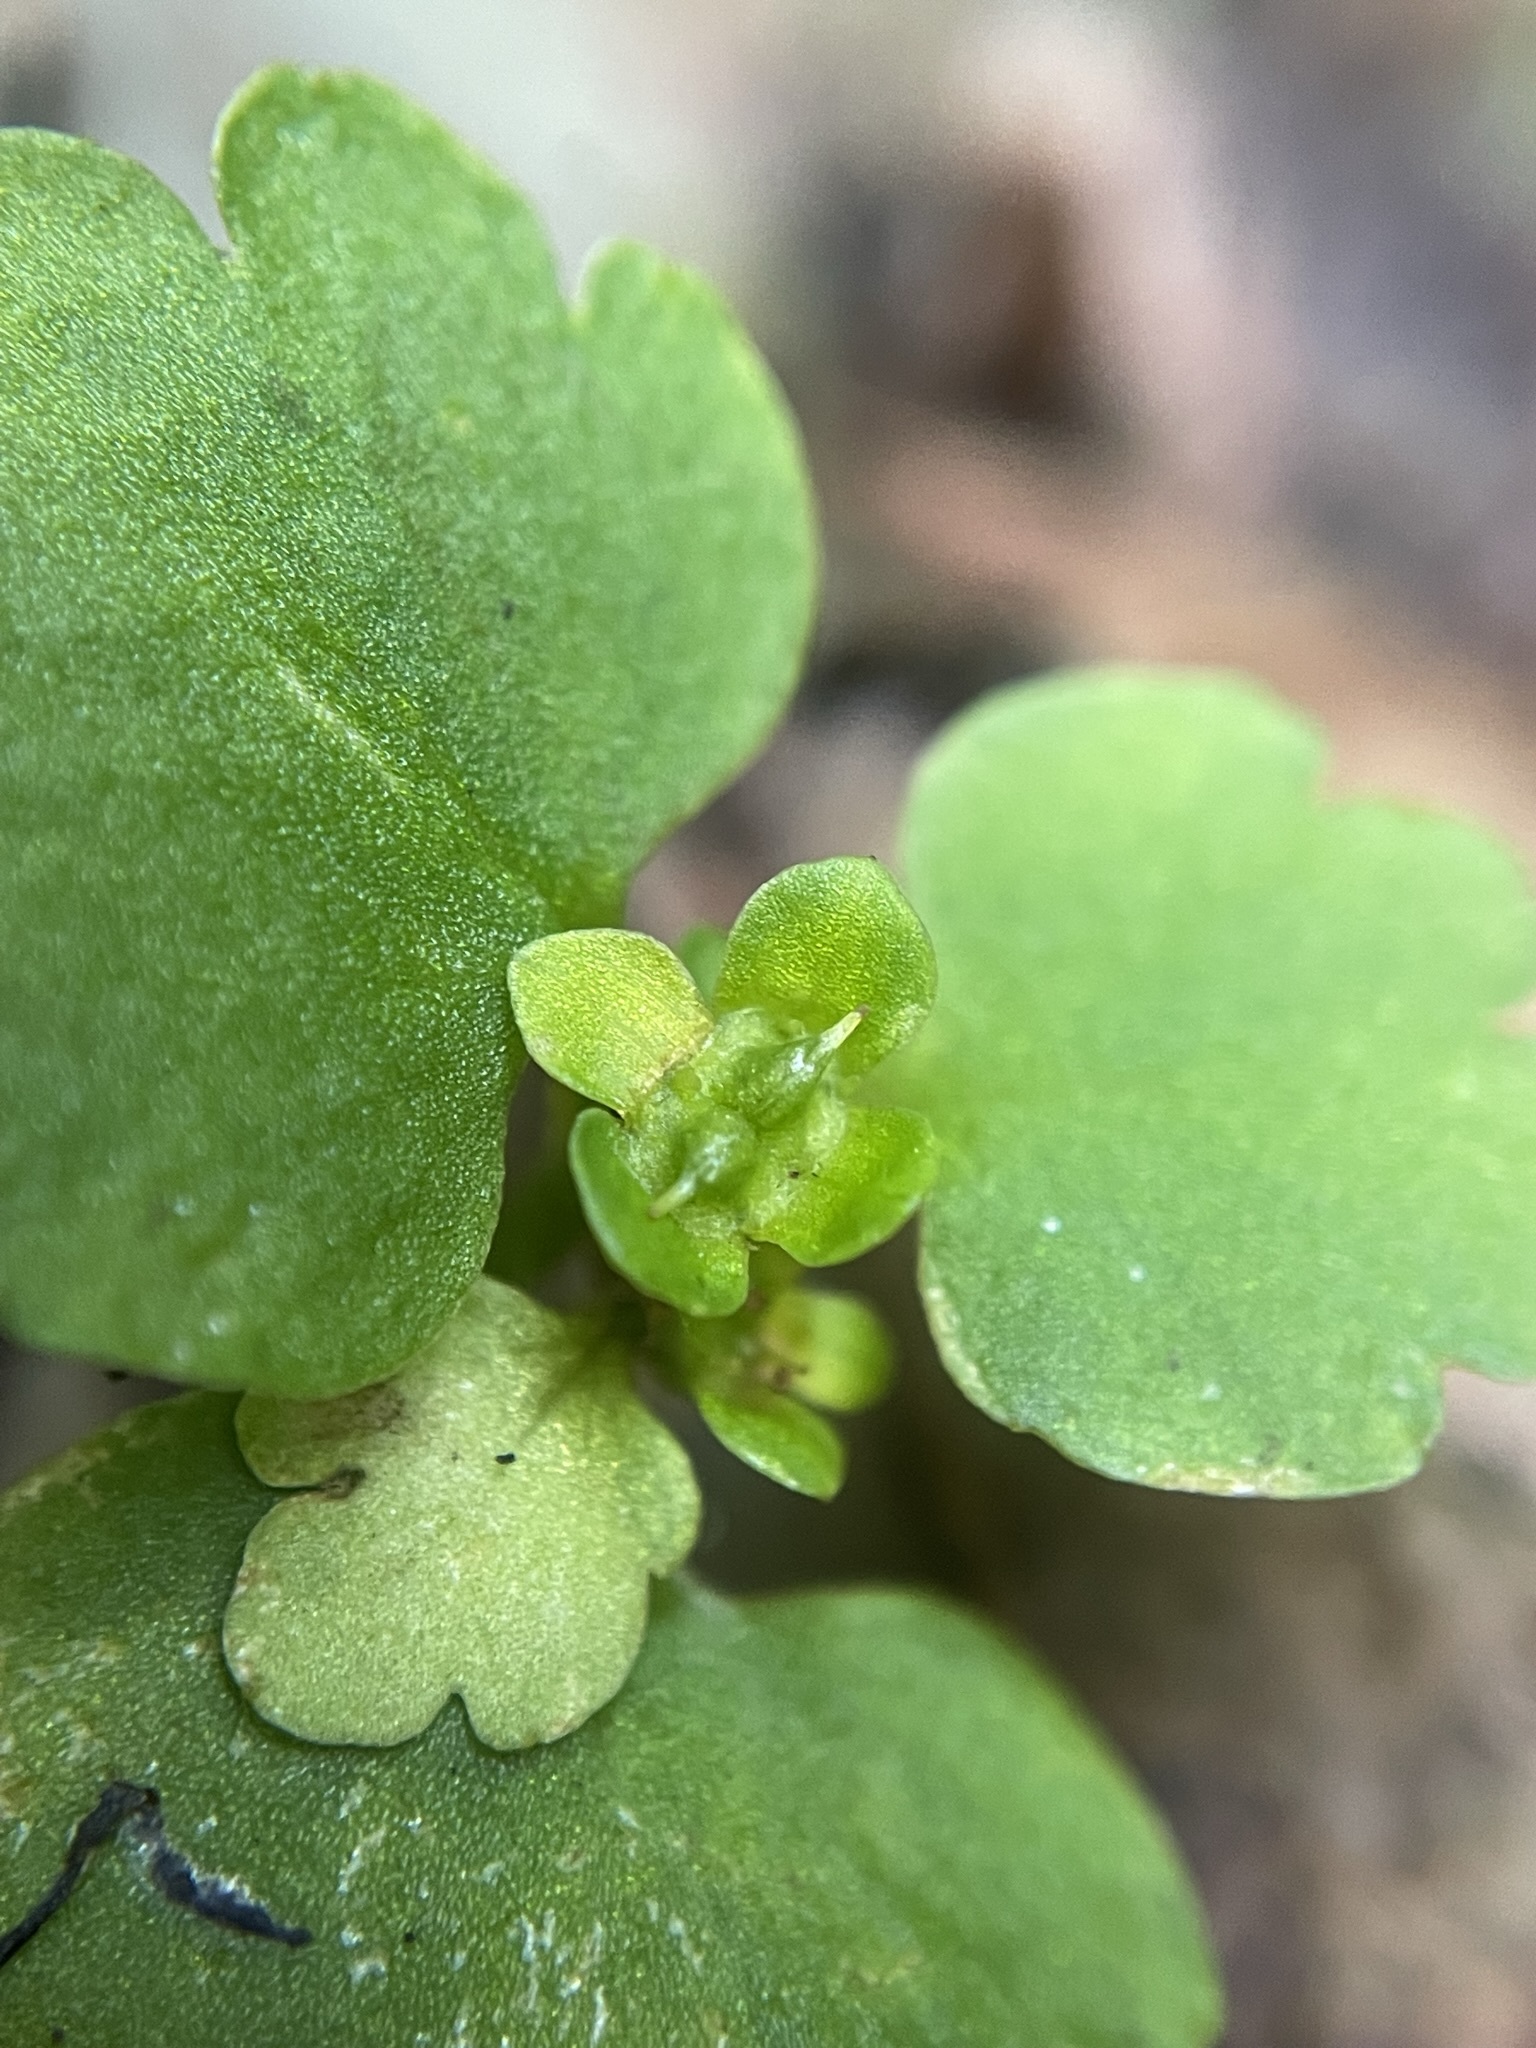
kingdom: Plantae
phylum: Tracheophyta
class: Magnoliopsida
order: Saxifragales
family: Saxifragaceae
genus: Chrysosplenium
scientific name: Chrysosplenium iowense
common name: Iowa golden carpet
